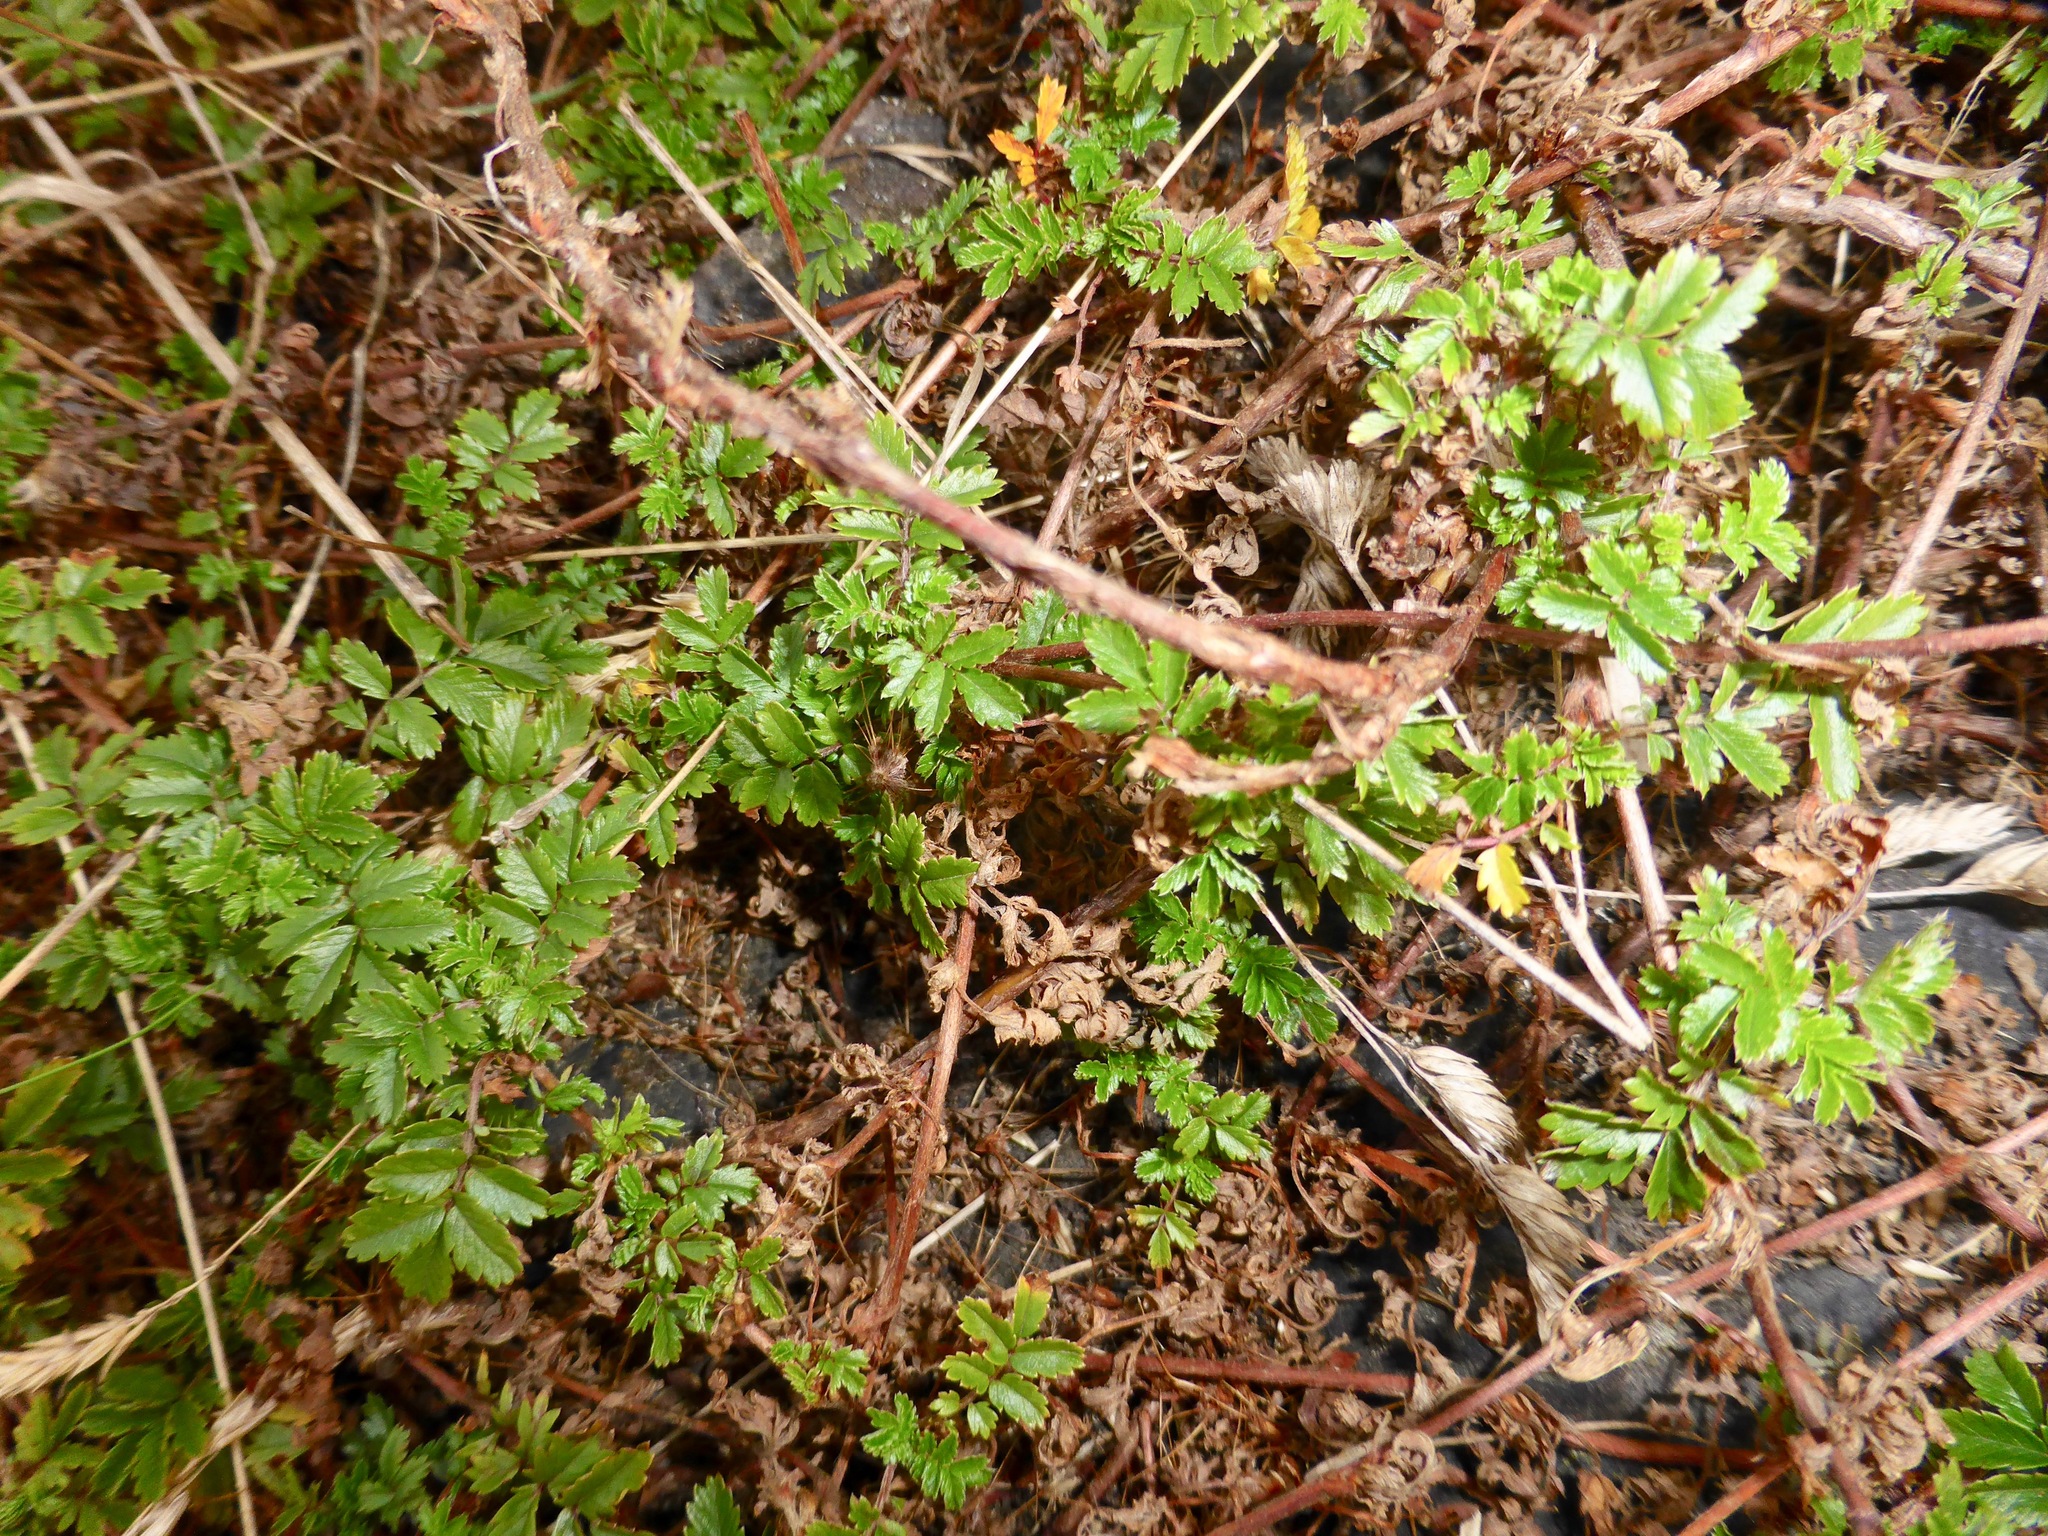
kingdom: Plantae
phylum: Tracheophyta
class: Magnoliopsida
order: Rosales
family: Rosaceae
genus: Acaena
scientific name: Acaena novae-zelandiae
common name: Pirri-pirri-bur
